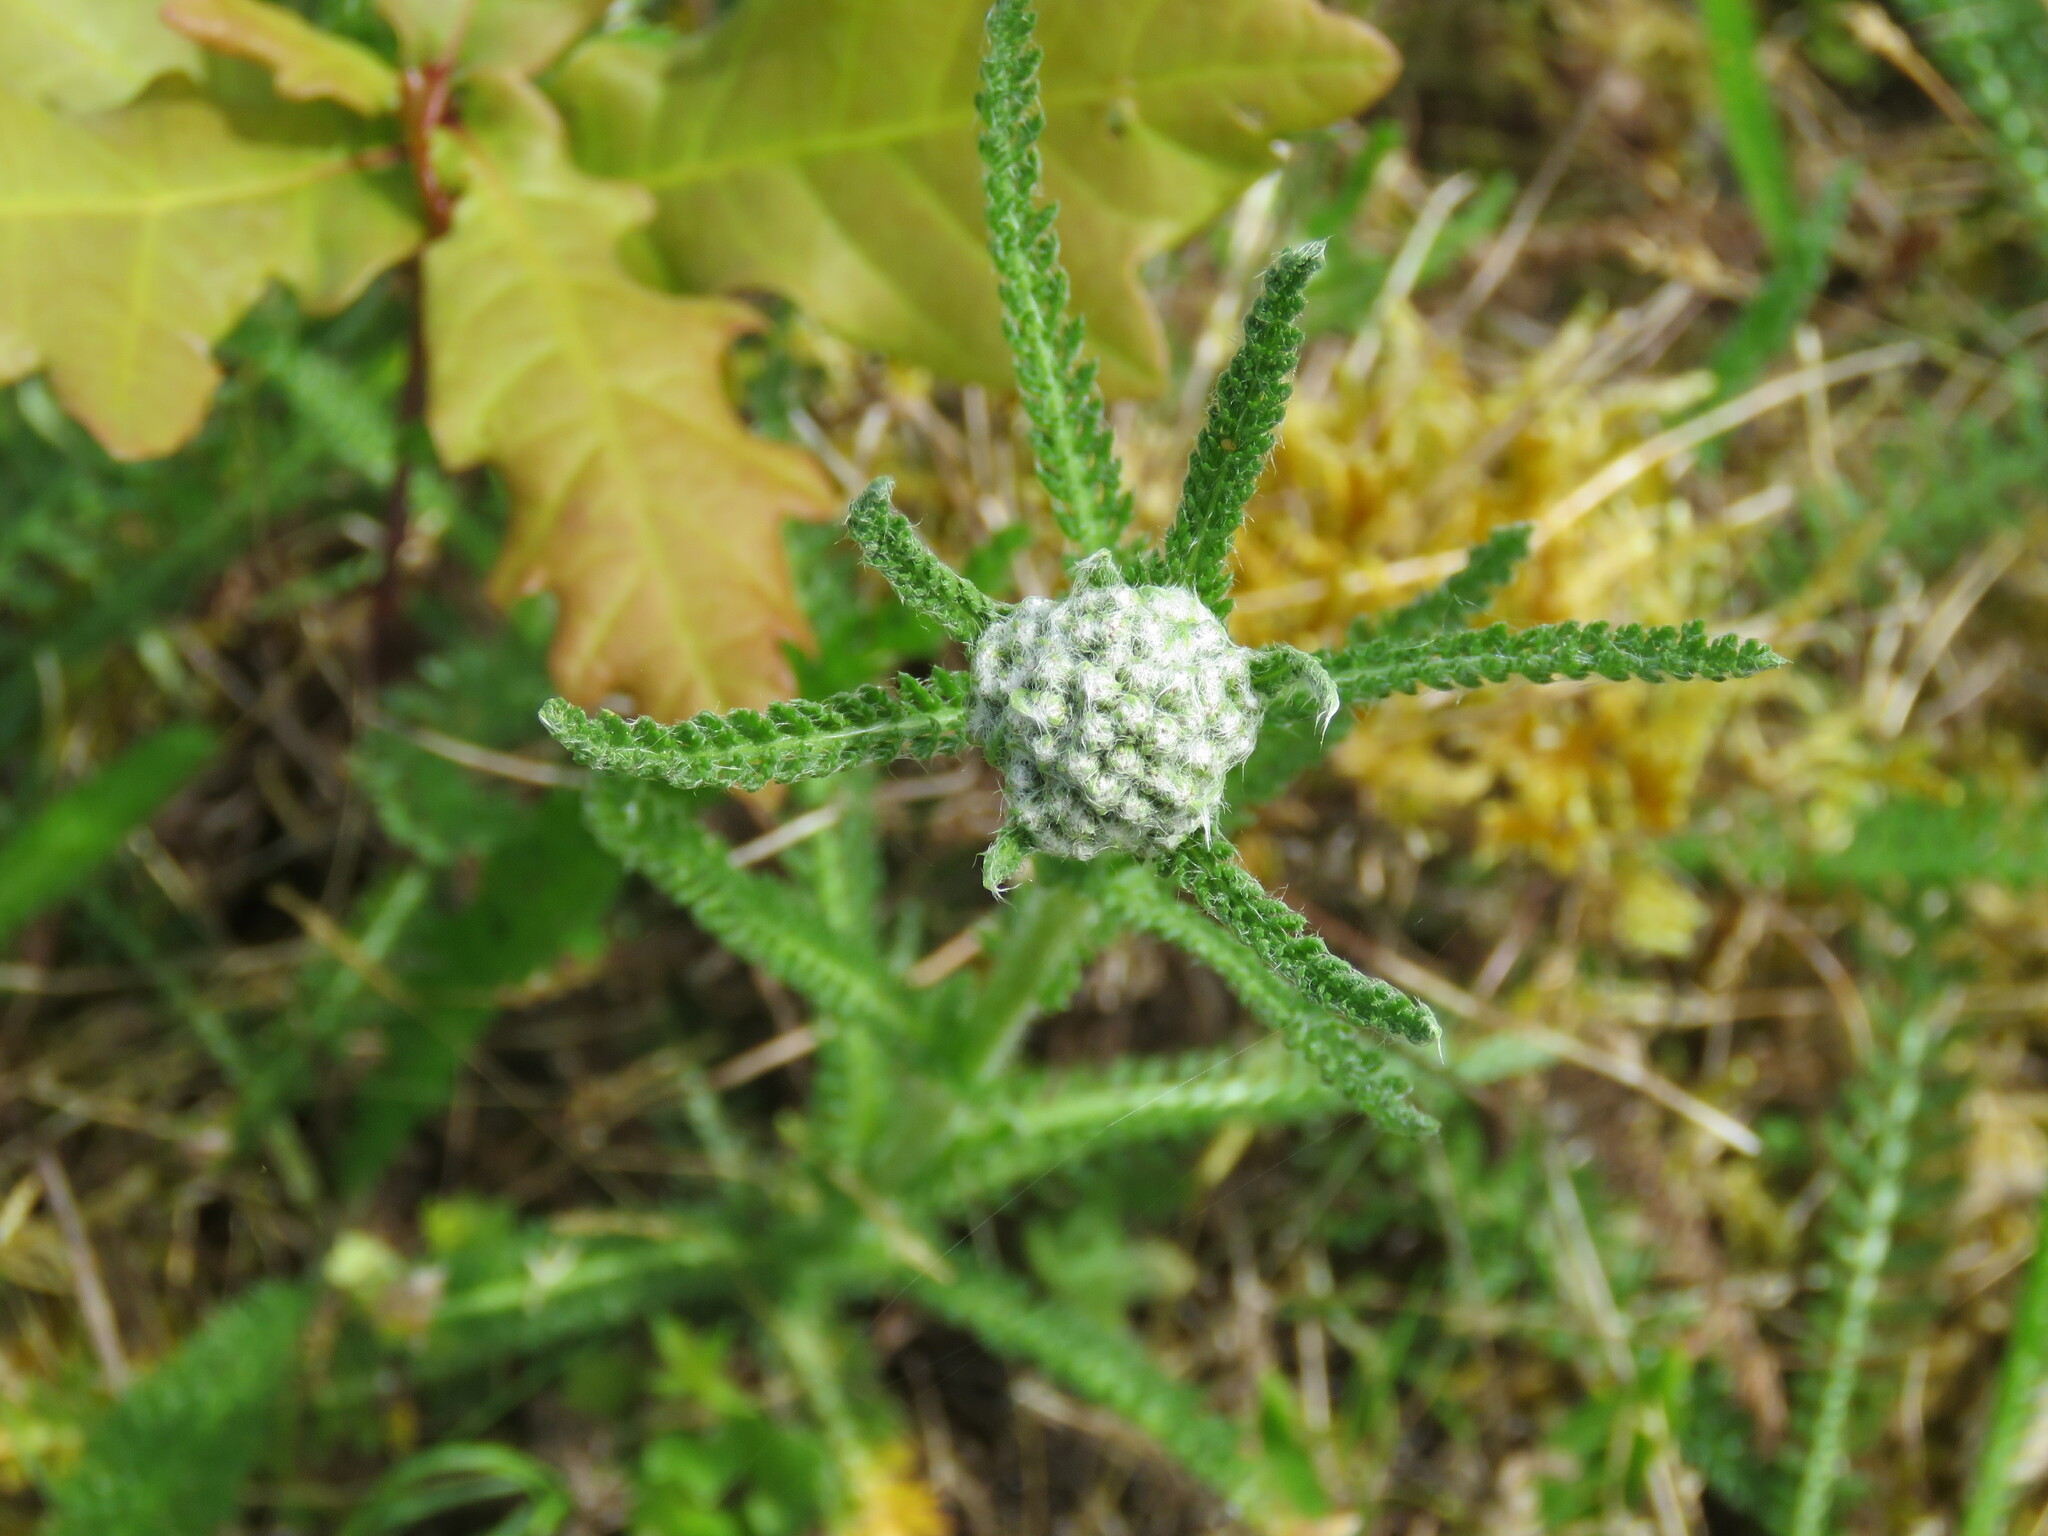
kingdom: Plantae
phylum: Tracheophyta
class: Magnoliopsida
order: Asterales
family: Asteraceae
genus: Achillea
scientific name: Achillea millefolium
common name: Yarrow
